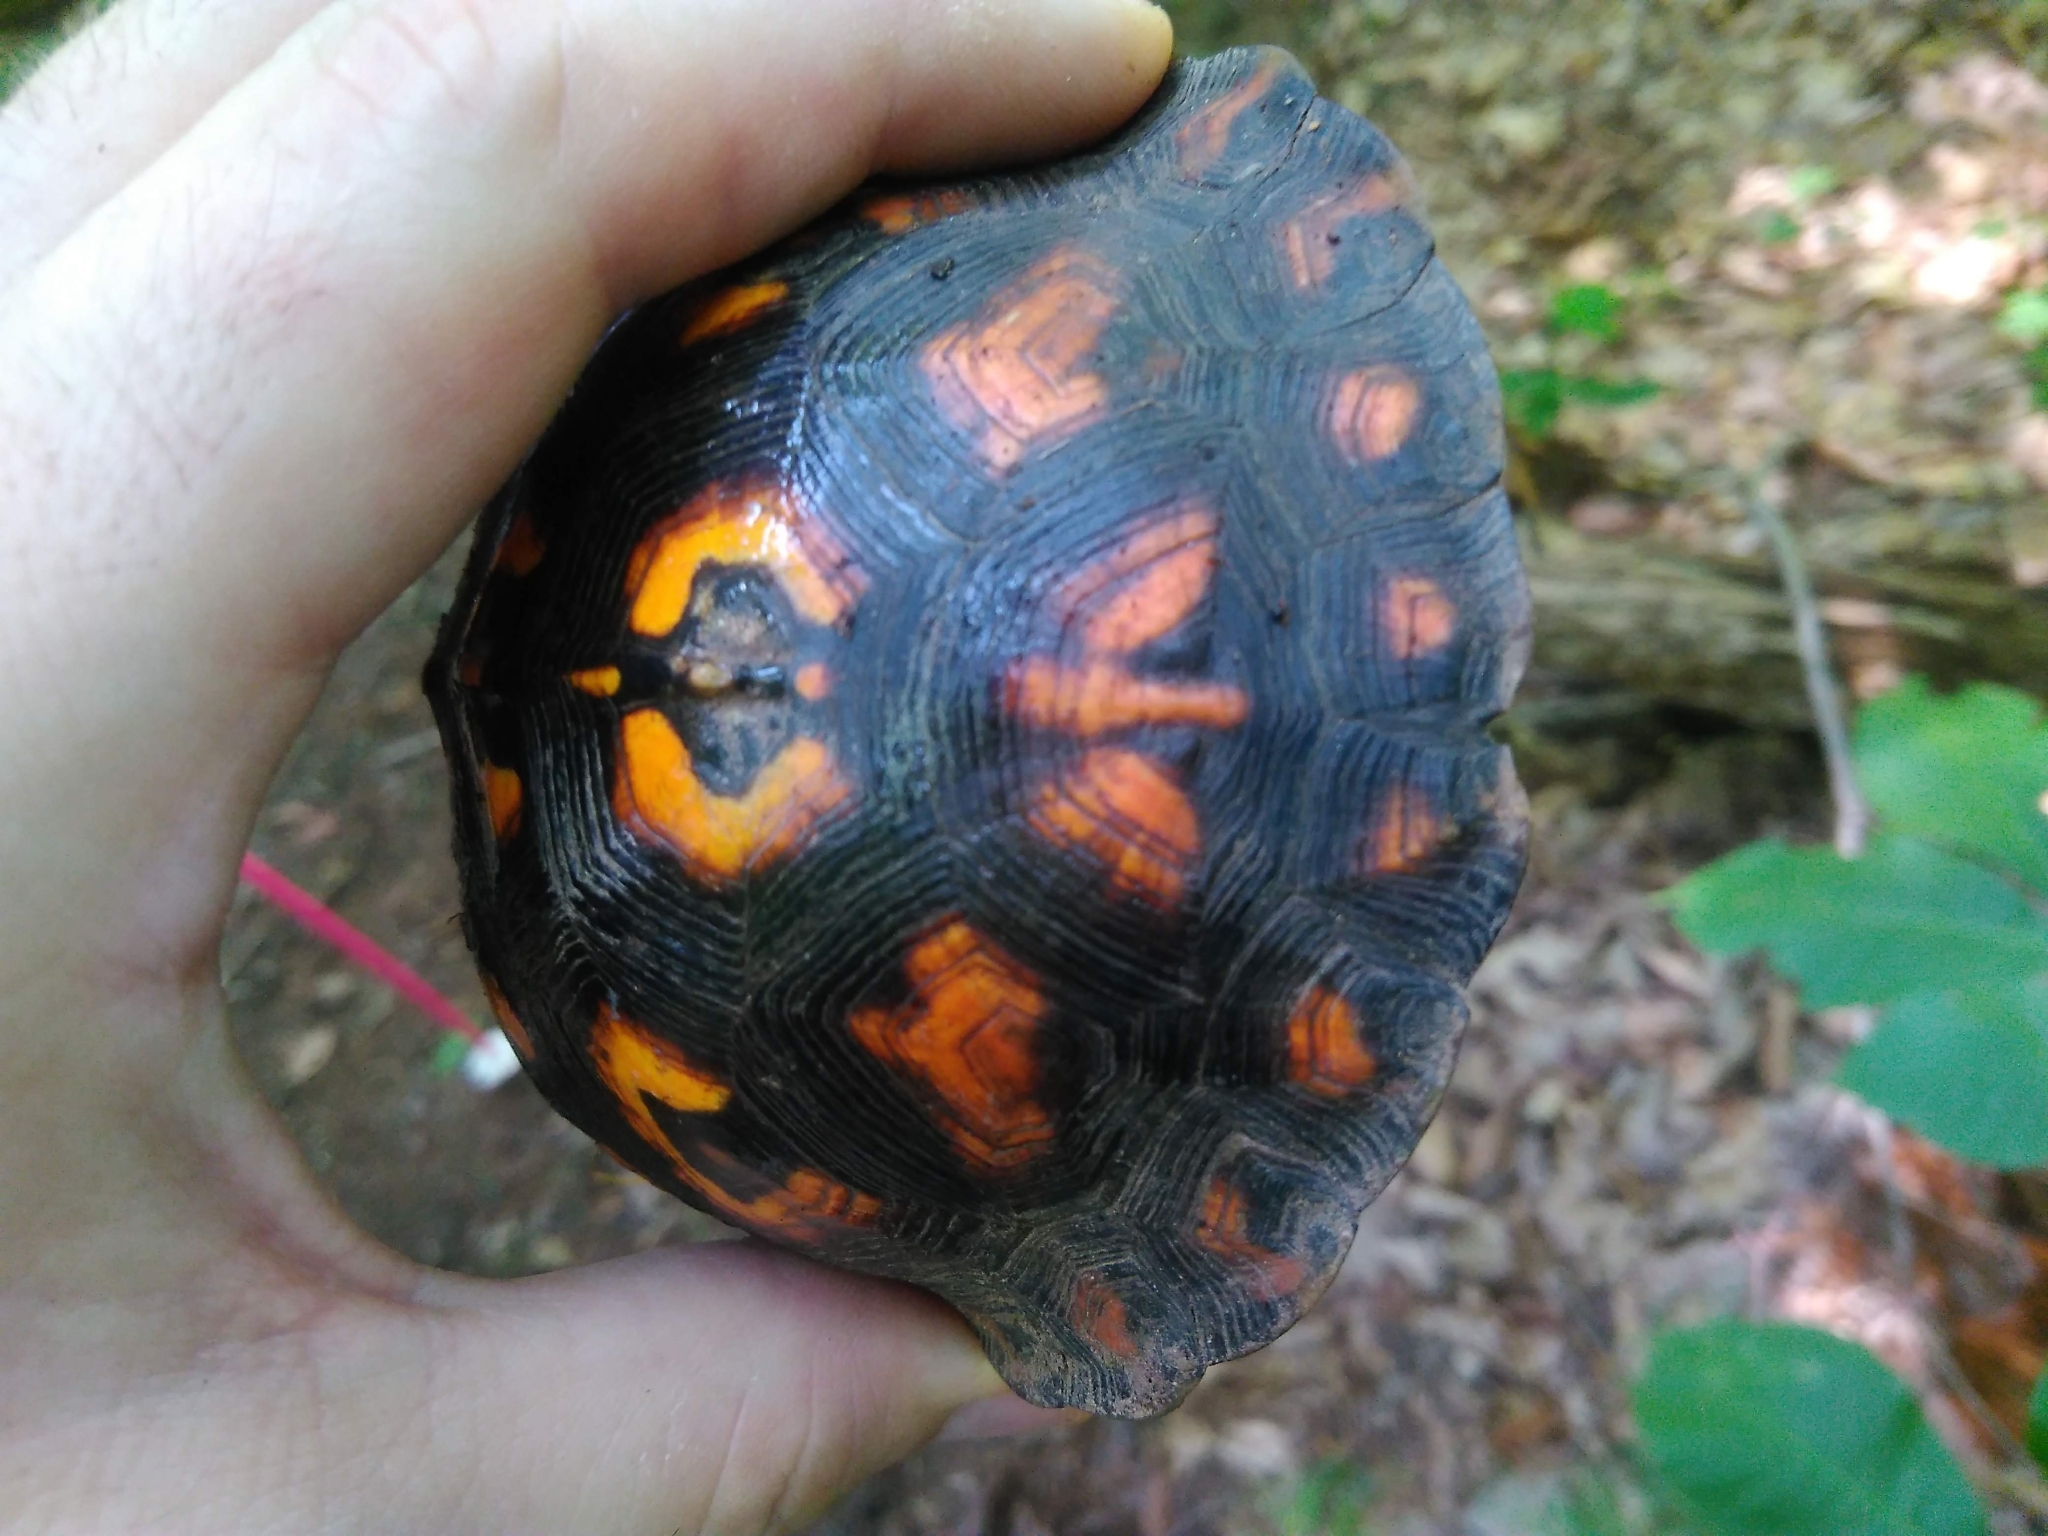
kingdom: Animalia
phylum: Chordata
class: Testudines
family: Emydidae
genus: Terrapene
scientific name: Terrapene carolina
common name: Common box turtle
